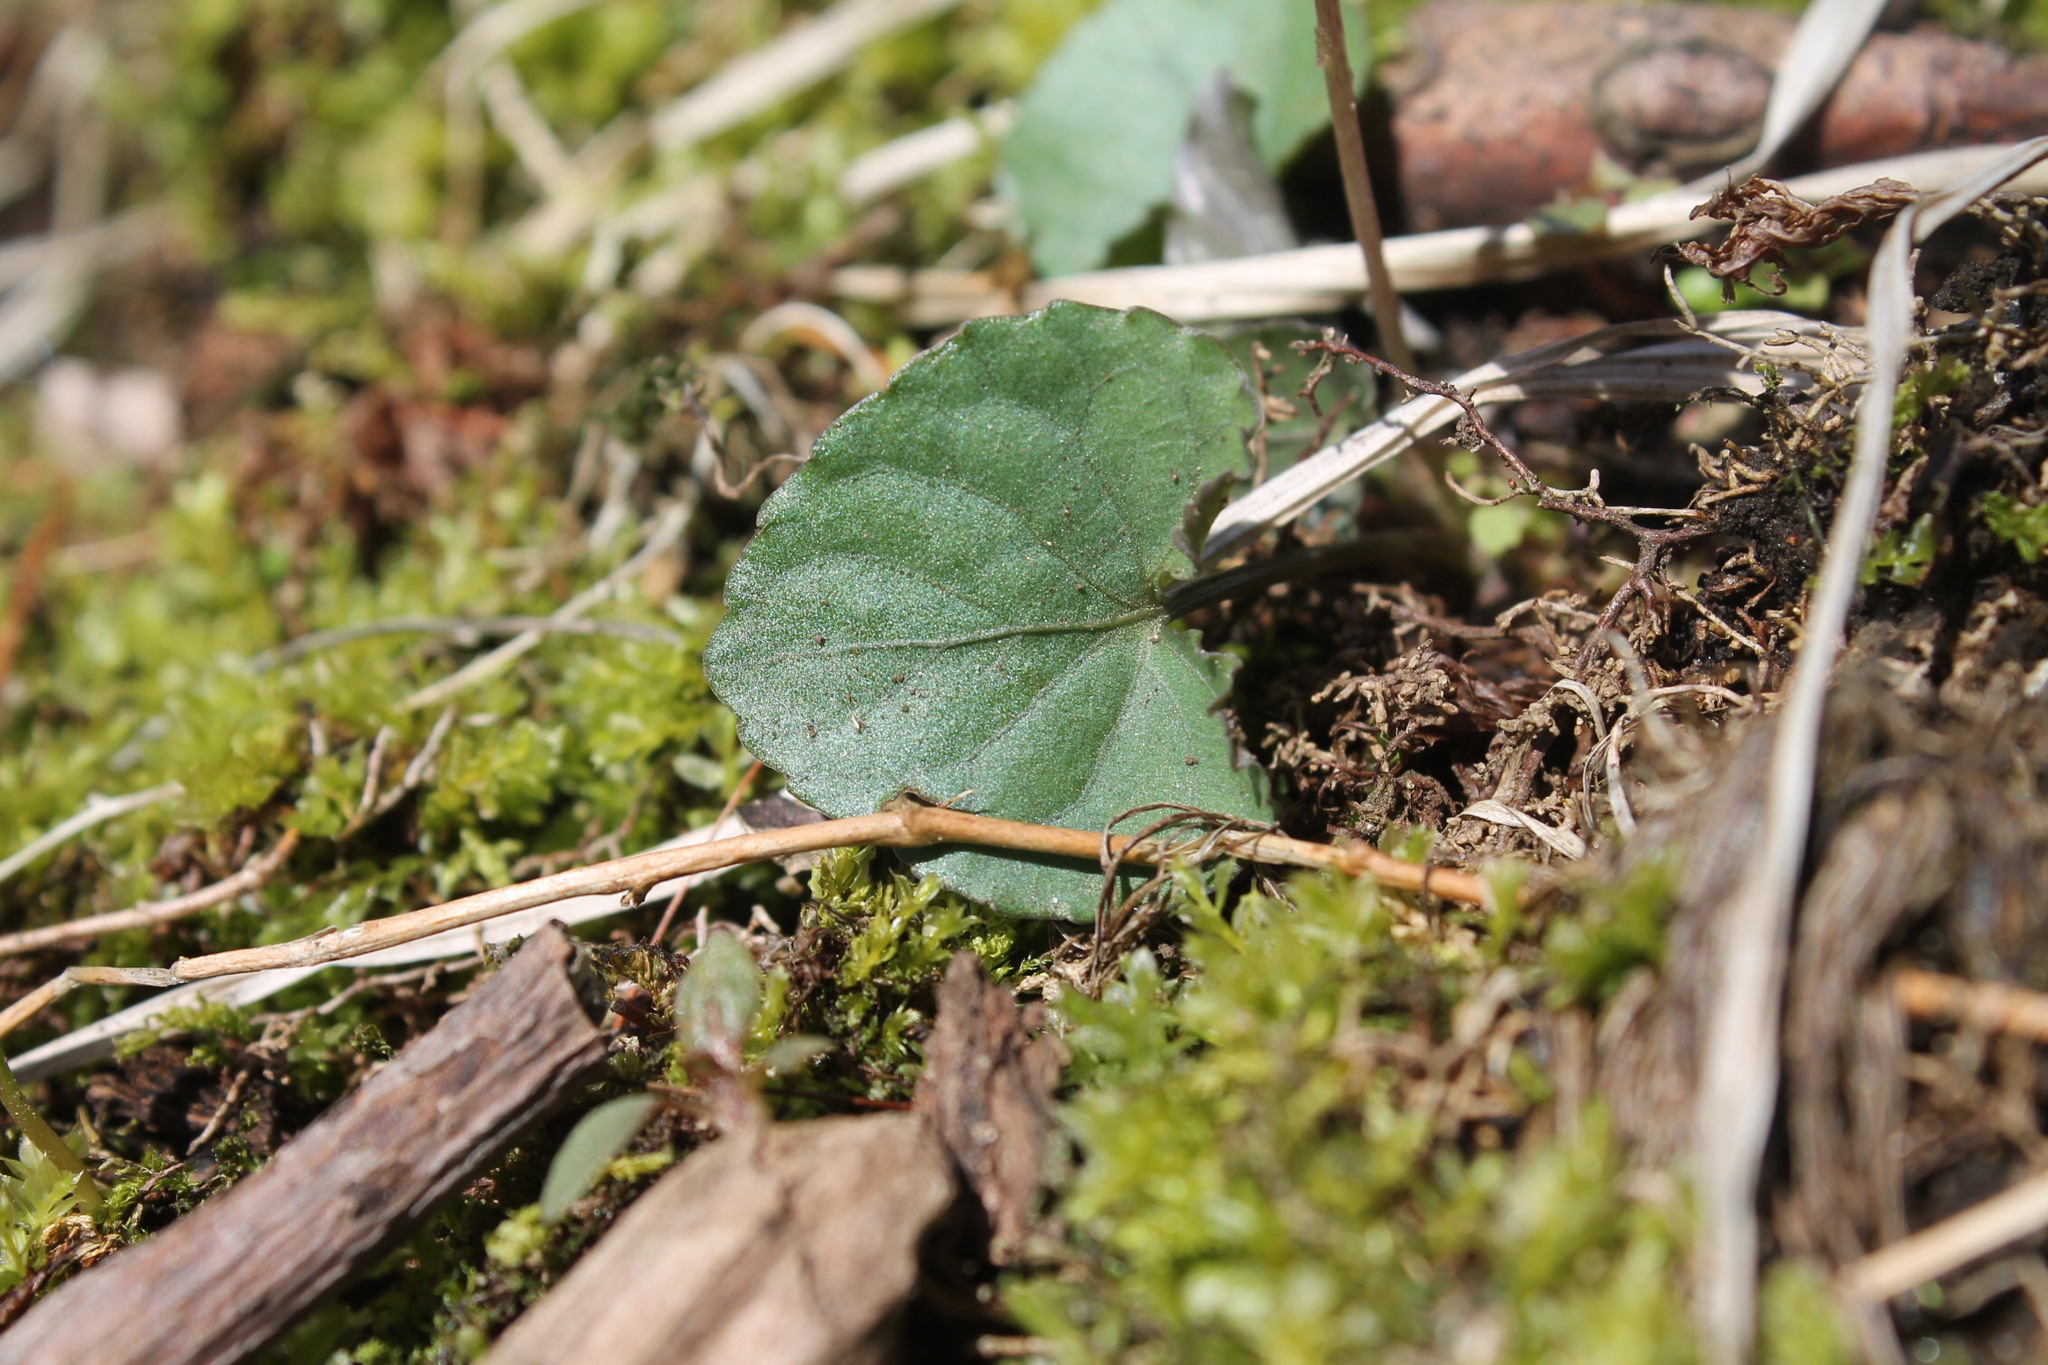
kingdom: Plantae
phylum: Tracheophyta
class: Magnoliopsida
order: Malpighiales
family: Violaceae
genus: Viola
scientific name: Viola sororia
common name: Dooryard violet
